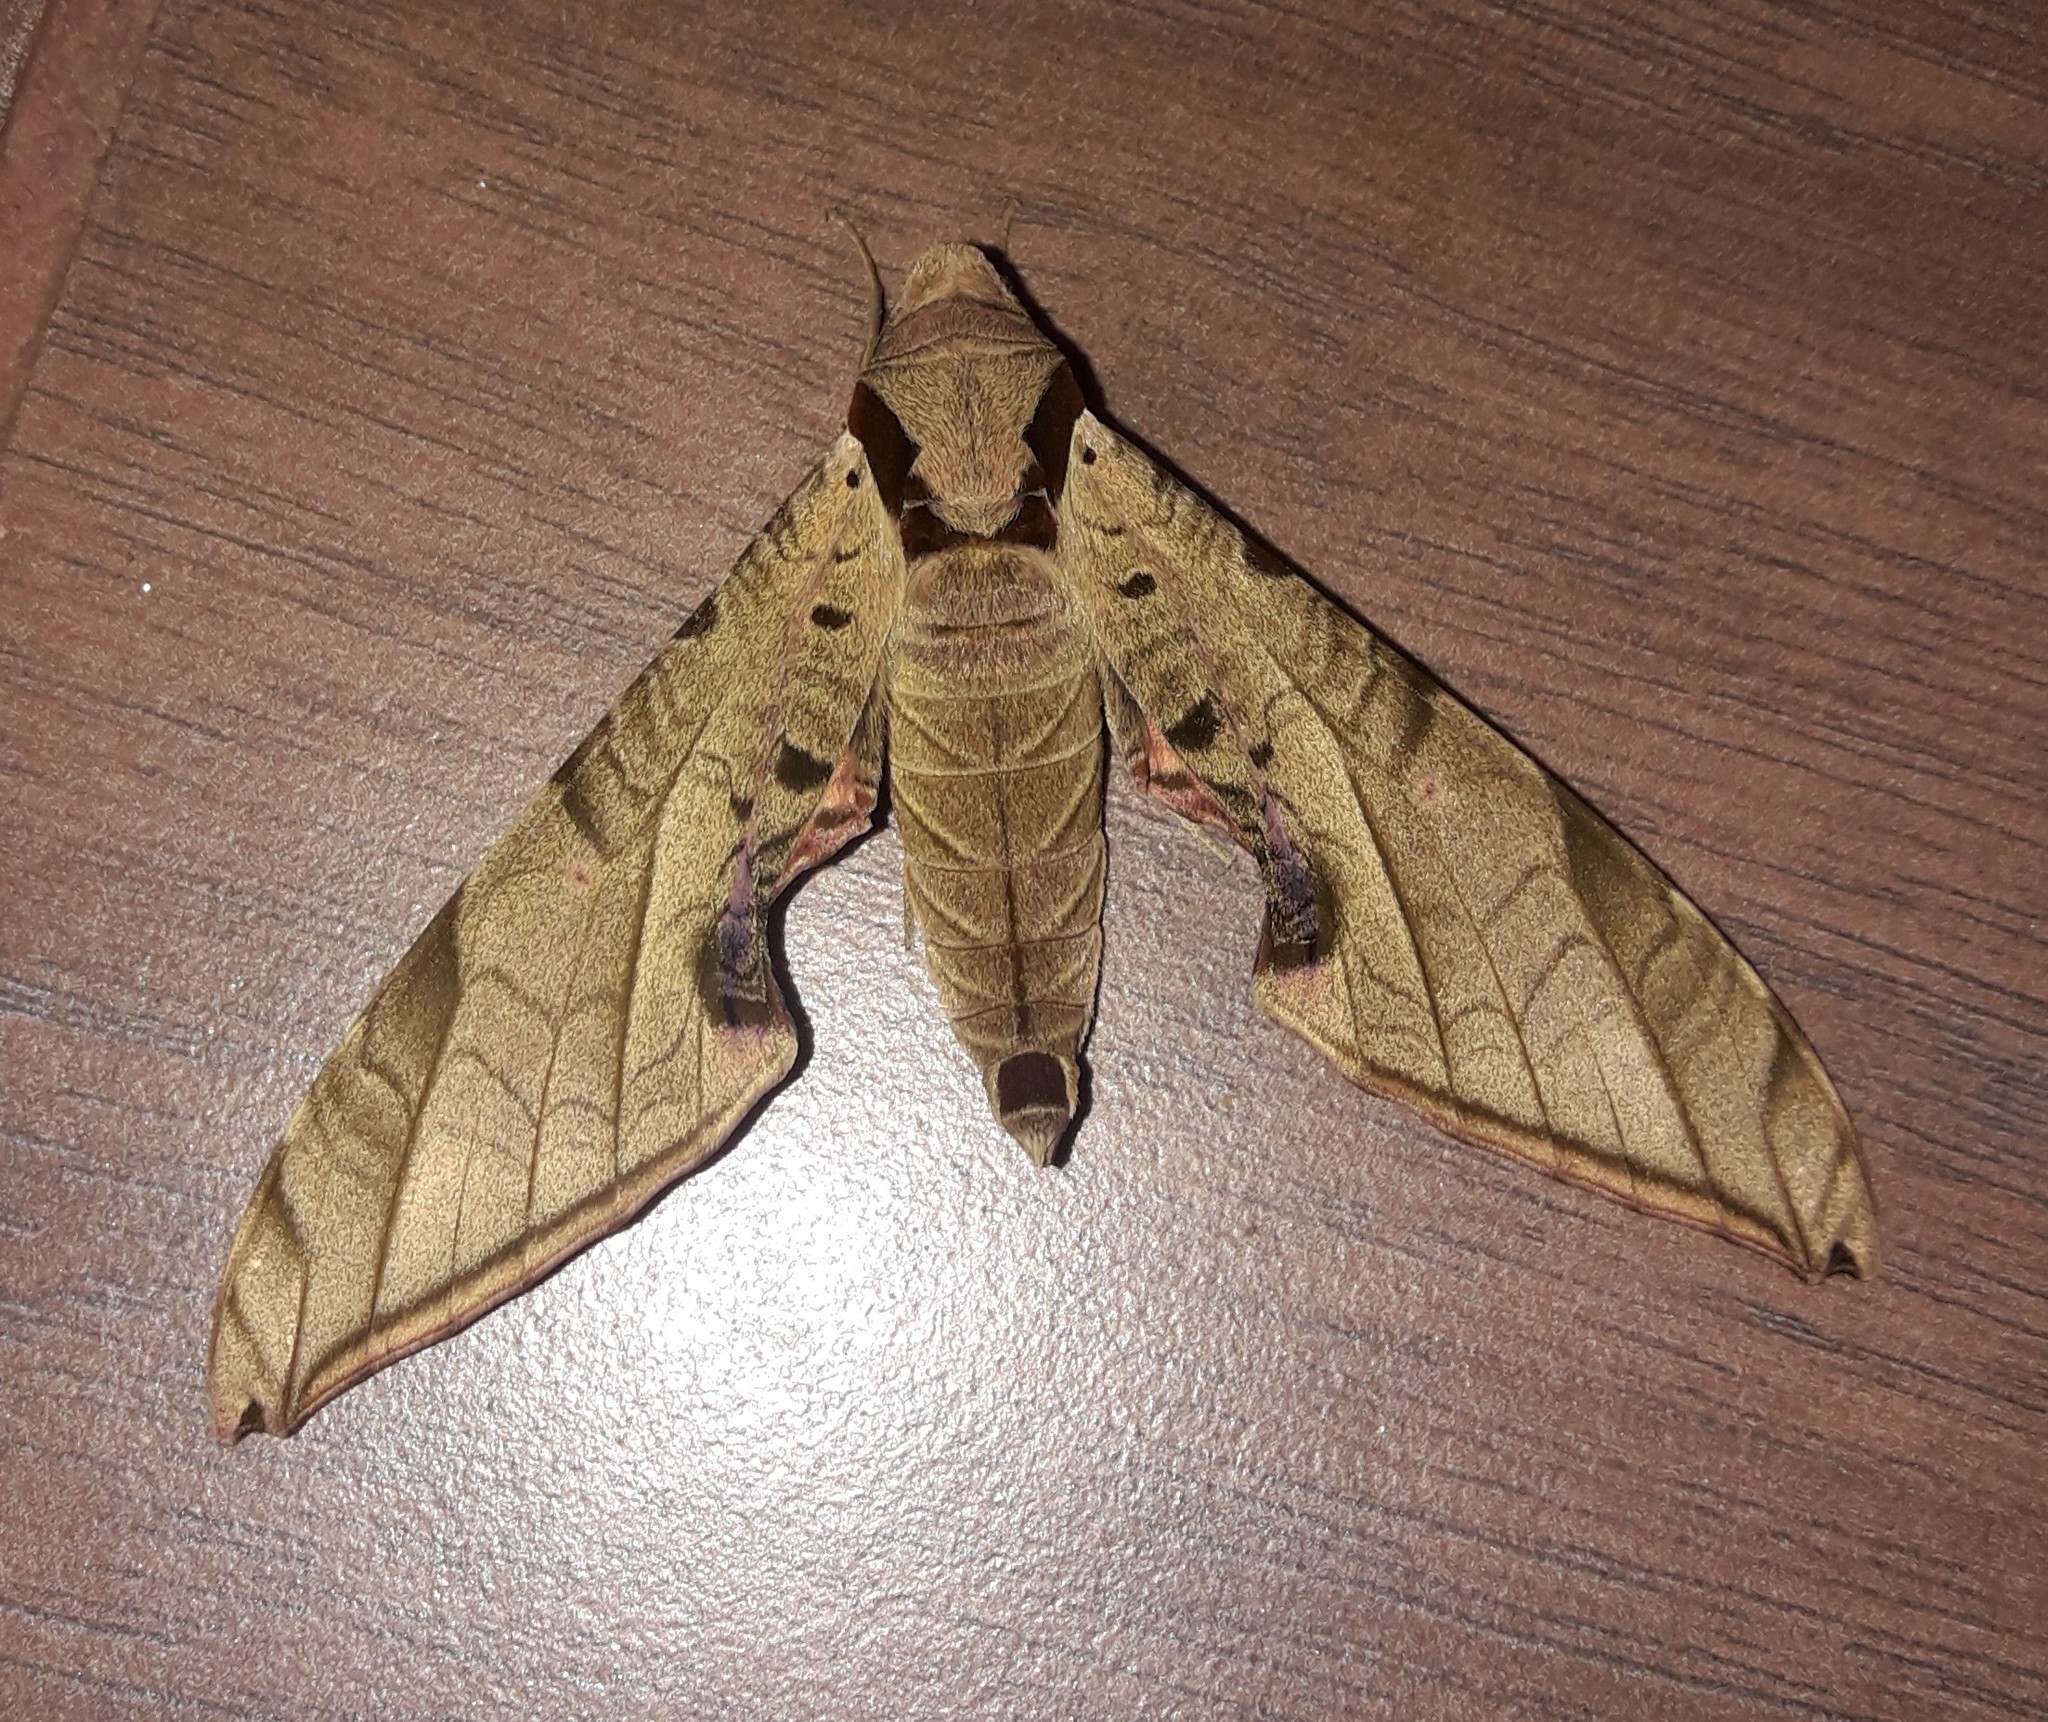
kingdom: Animalia
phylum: Arthropoda
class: Insecta
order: Lepidoptera
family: Sphingidae
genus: Protambulyx
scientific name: Protambulyx strigilis
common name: Streaked sphinx
